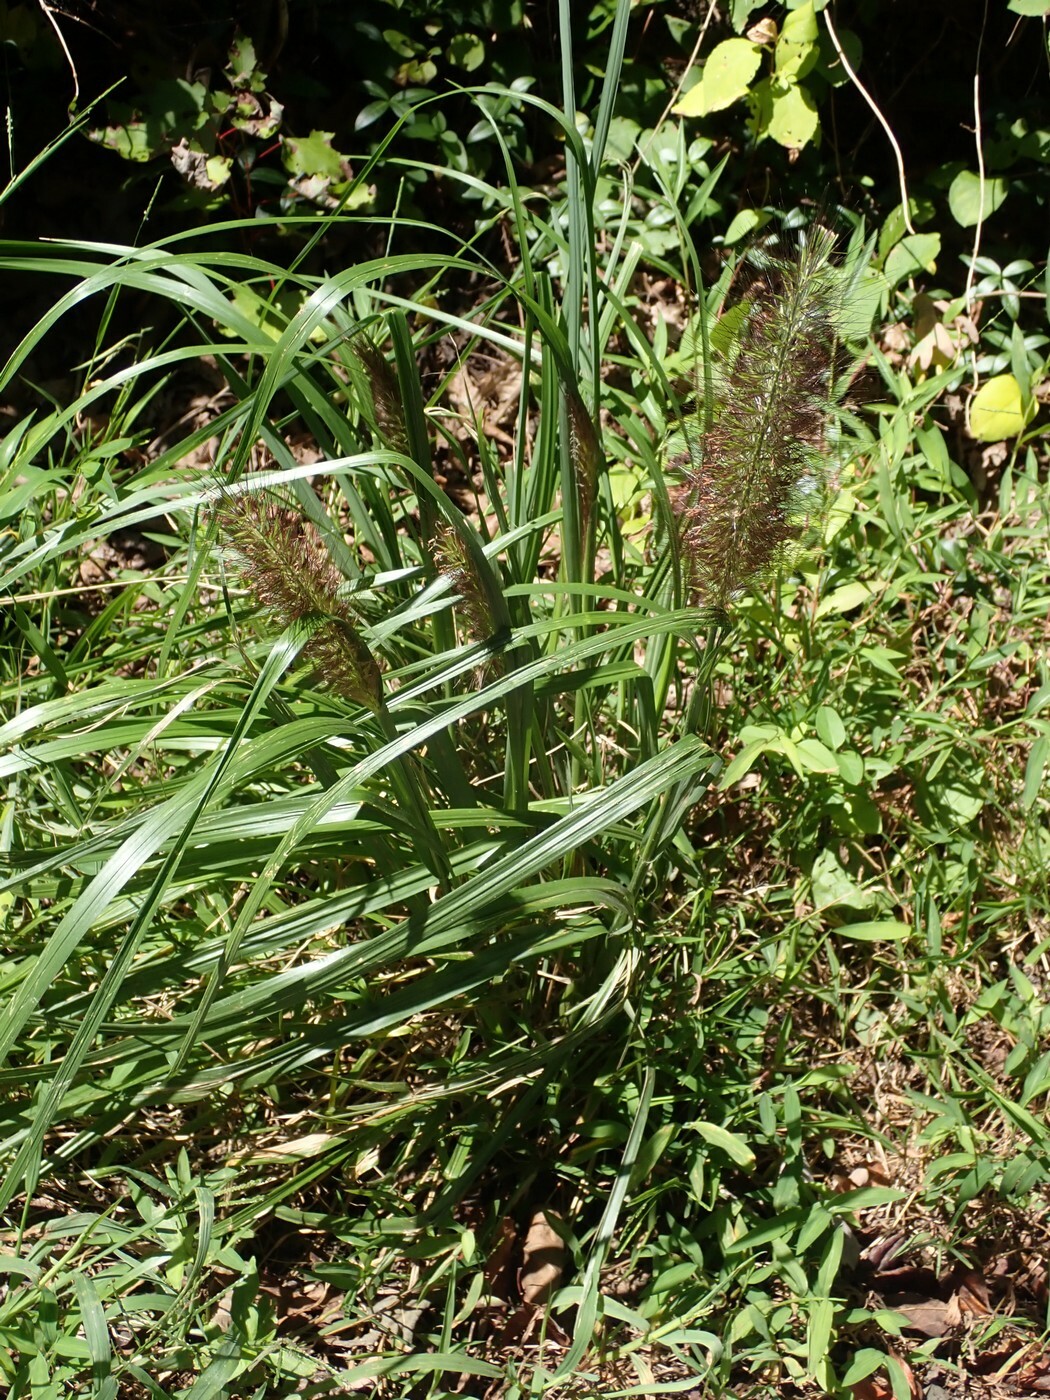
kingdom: Plantae
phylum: Tracheophyta
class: Liliopsida
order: Poales
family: Poaceae
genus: Cenchrus
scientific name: Cenchrus alopecuroides
